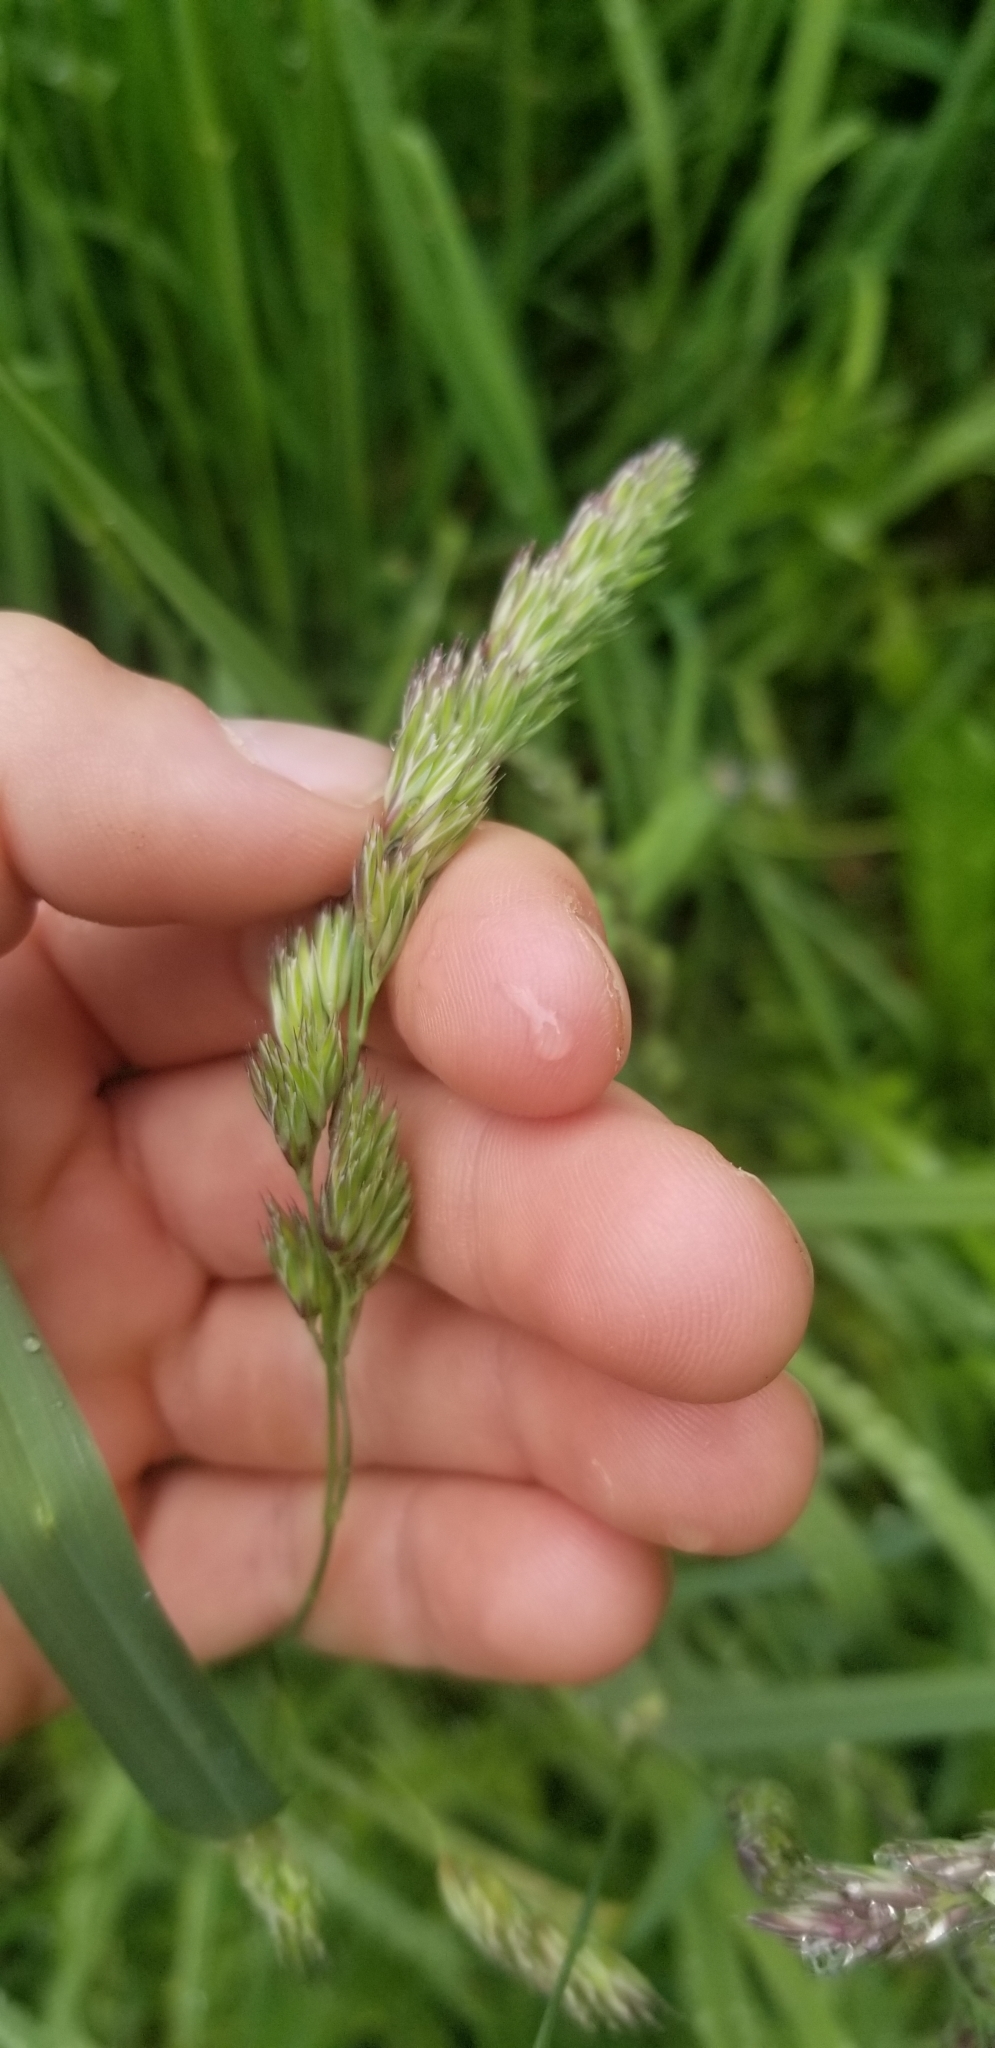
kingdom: Plantae
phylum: Tracheophyta
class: Liliopsida
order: Poales
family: Poaceae
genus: Dactylis
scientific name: Dactylis glomerata
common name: Orchardgrass
